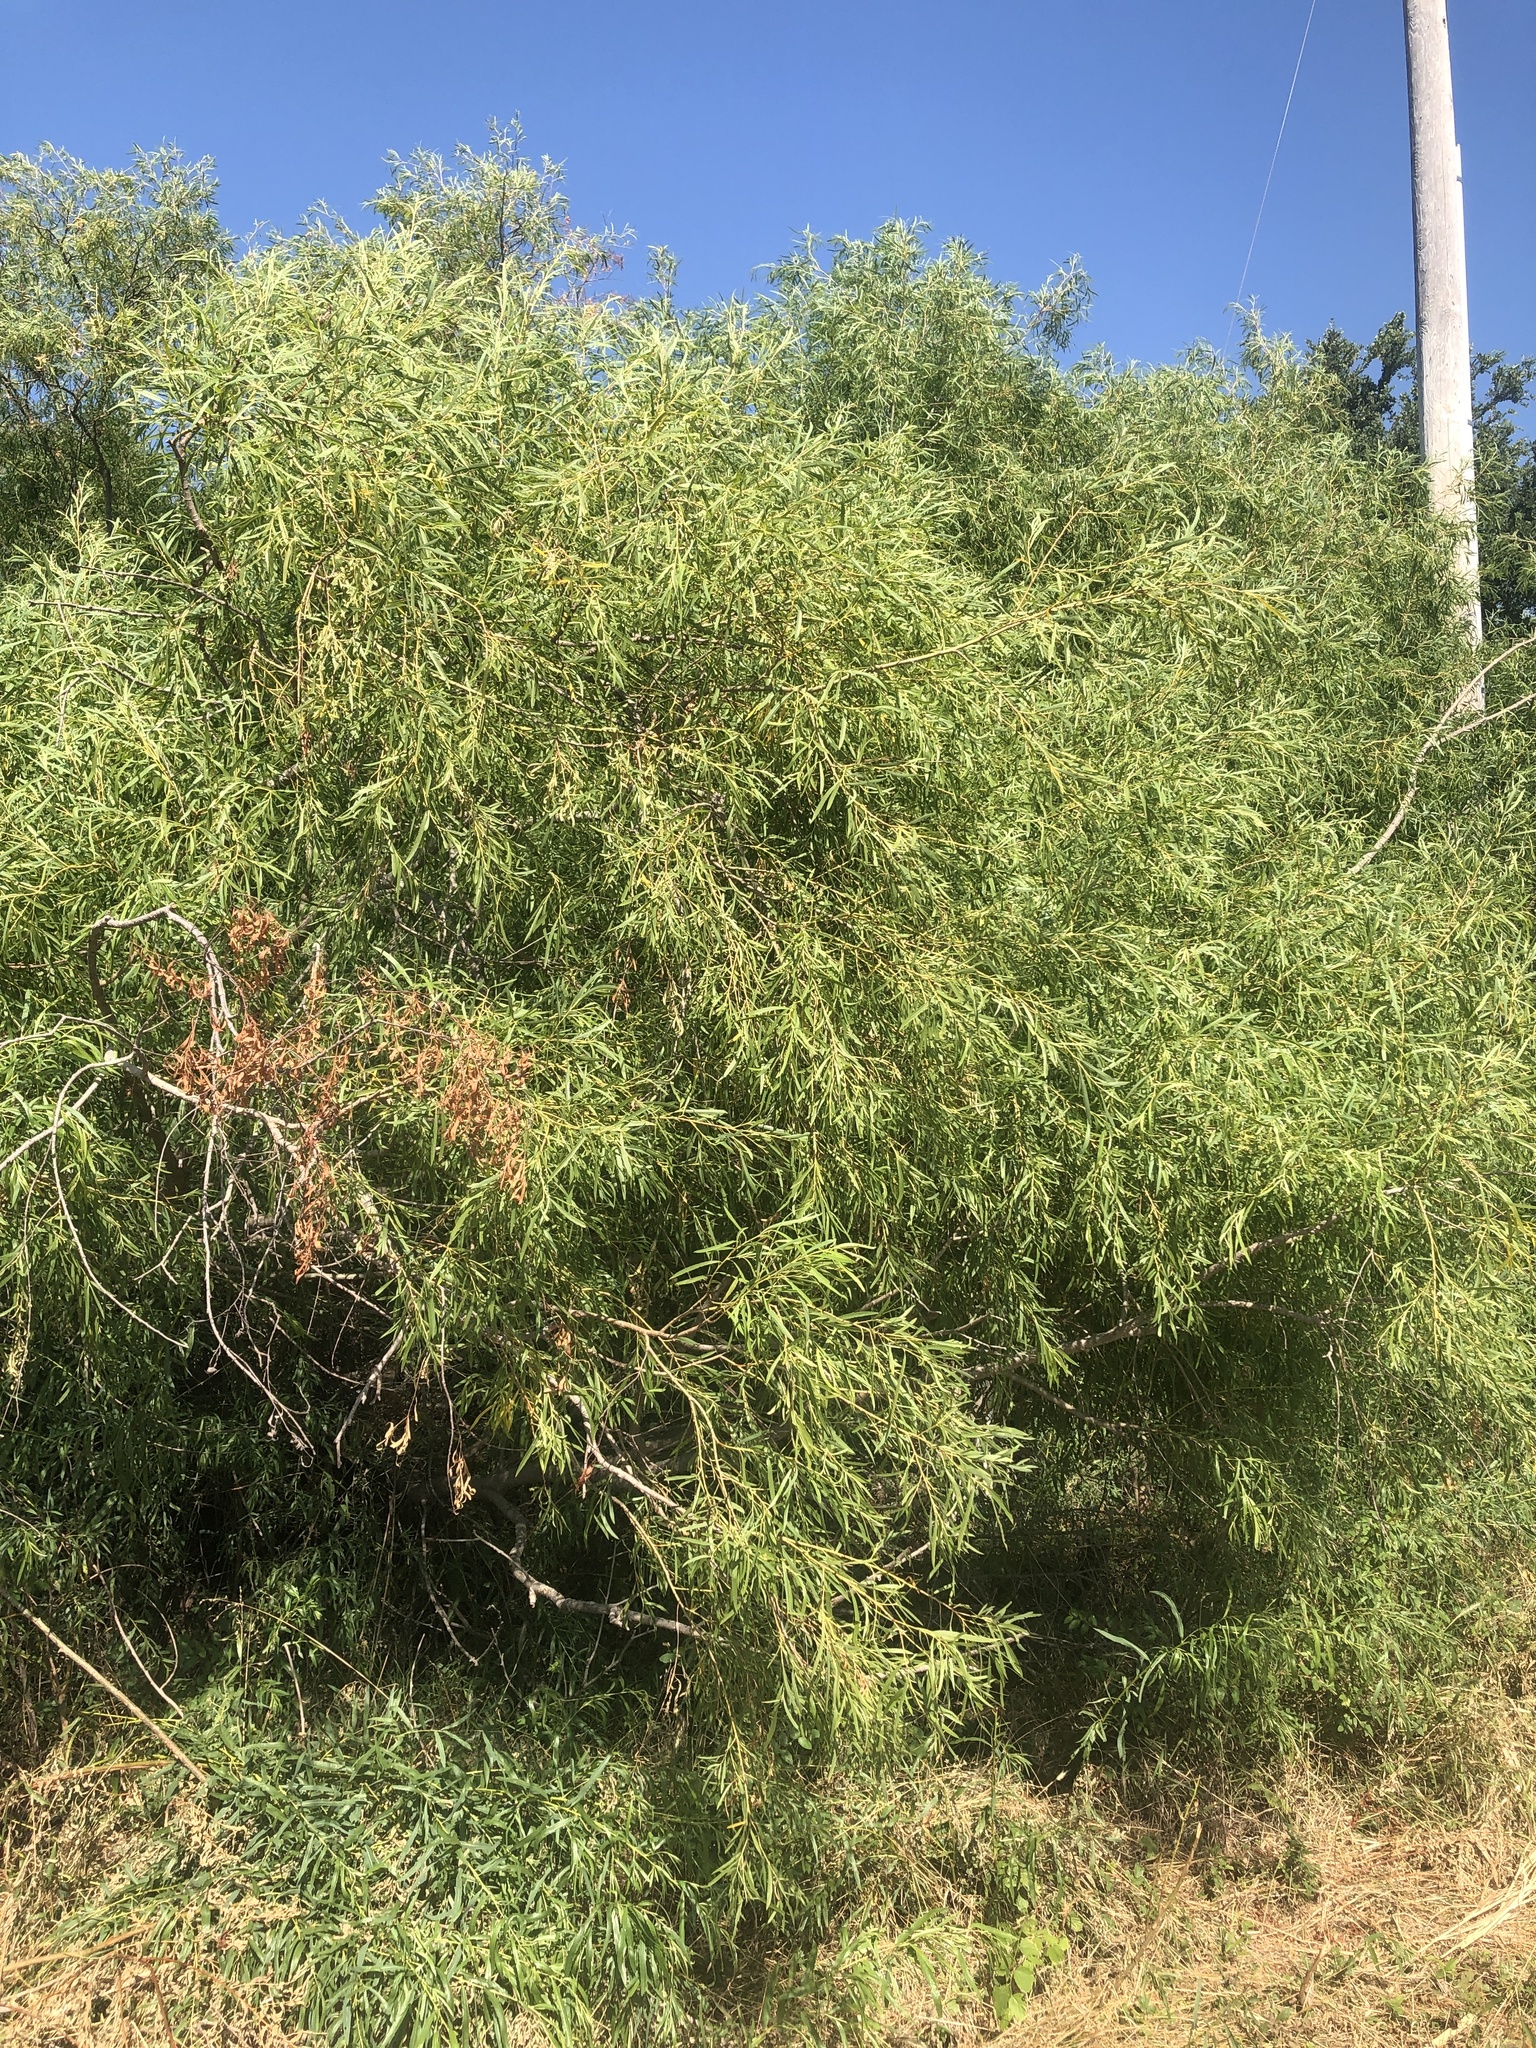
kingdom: Plantae
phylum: Tracheophyta
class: Magnoliopsida
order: Malpighiales
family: Salicaceae
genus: Salix
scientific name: Salix nigra
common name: Black willow
